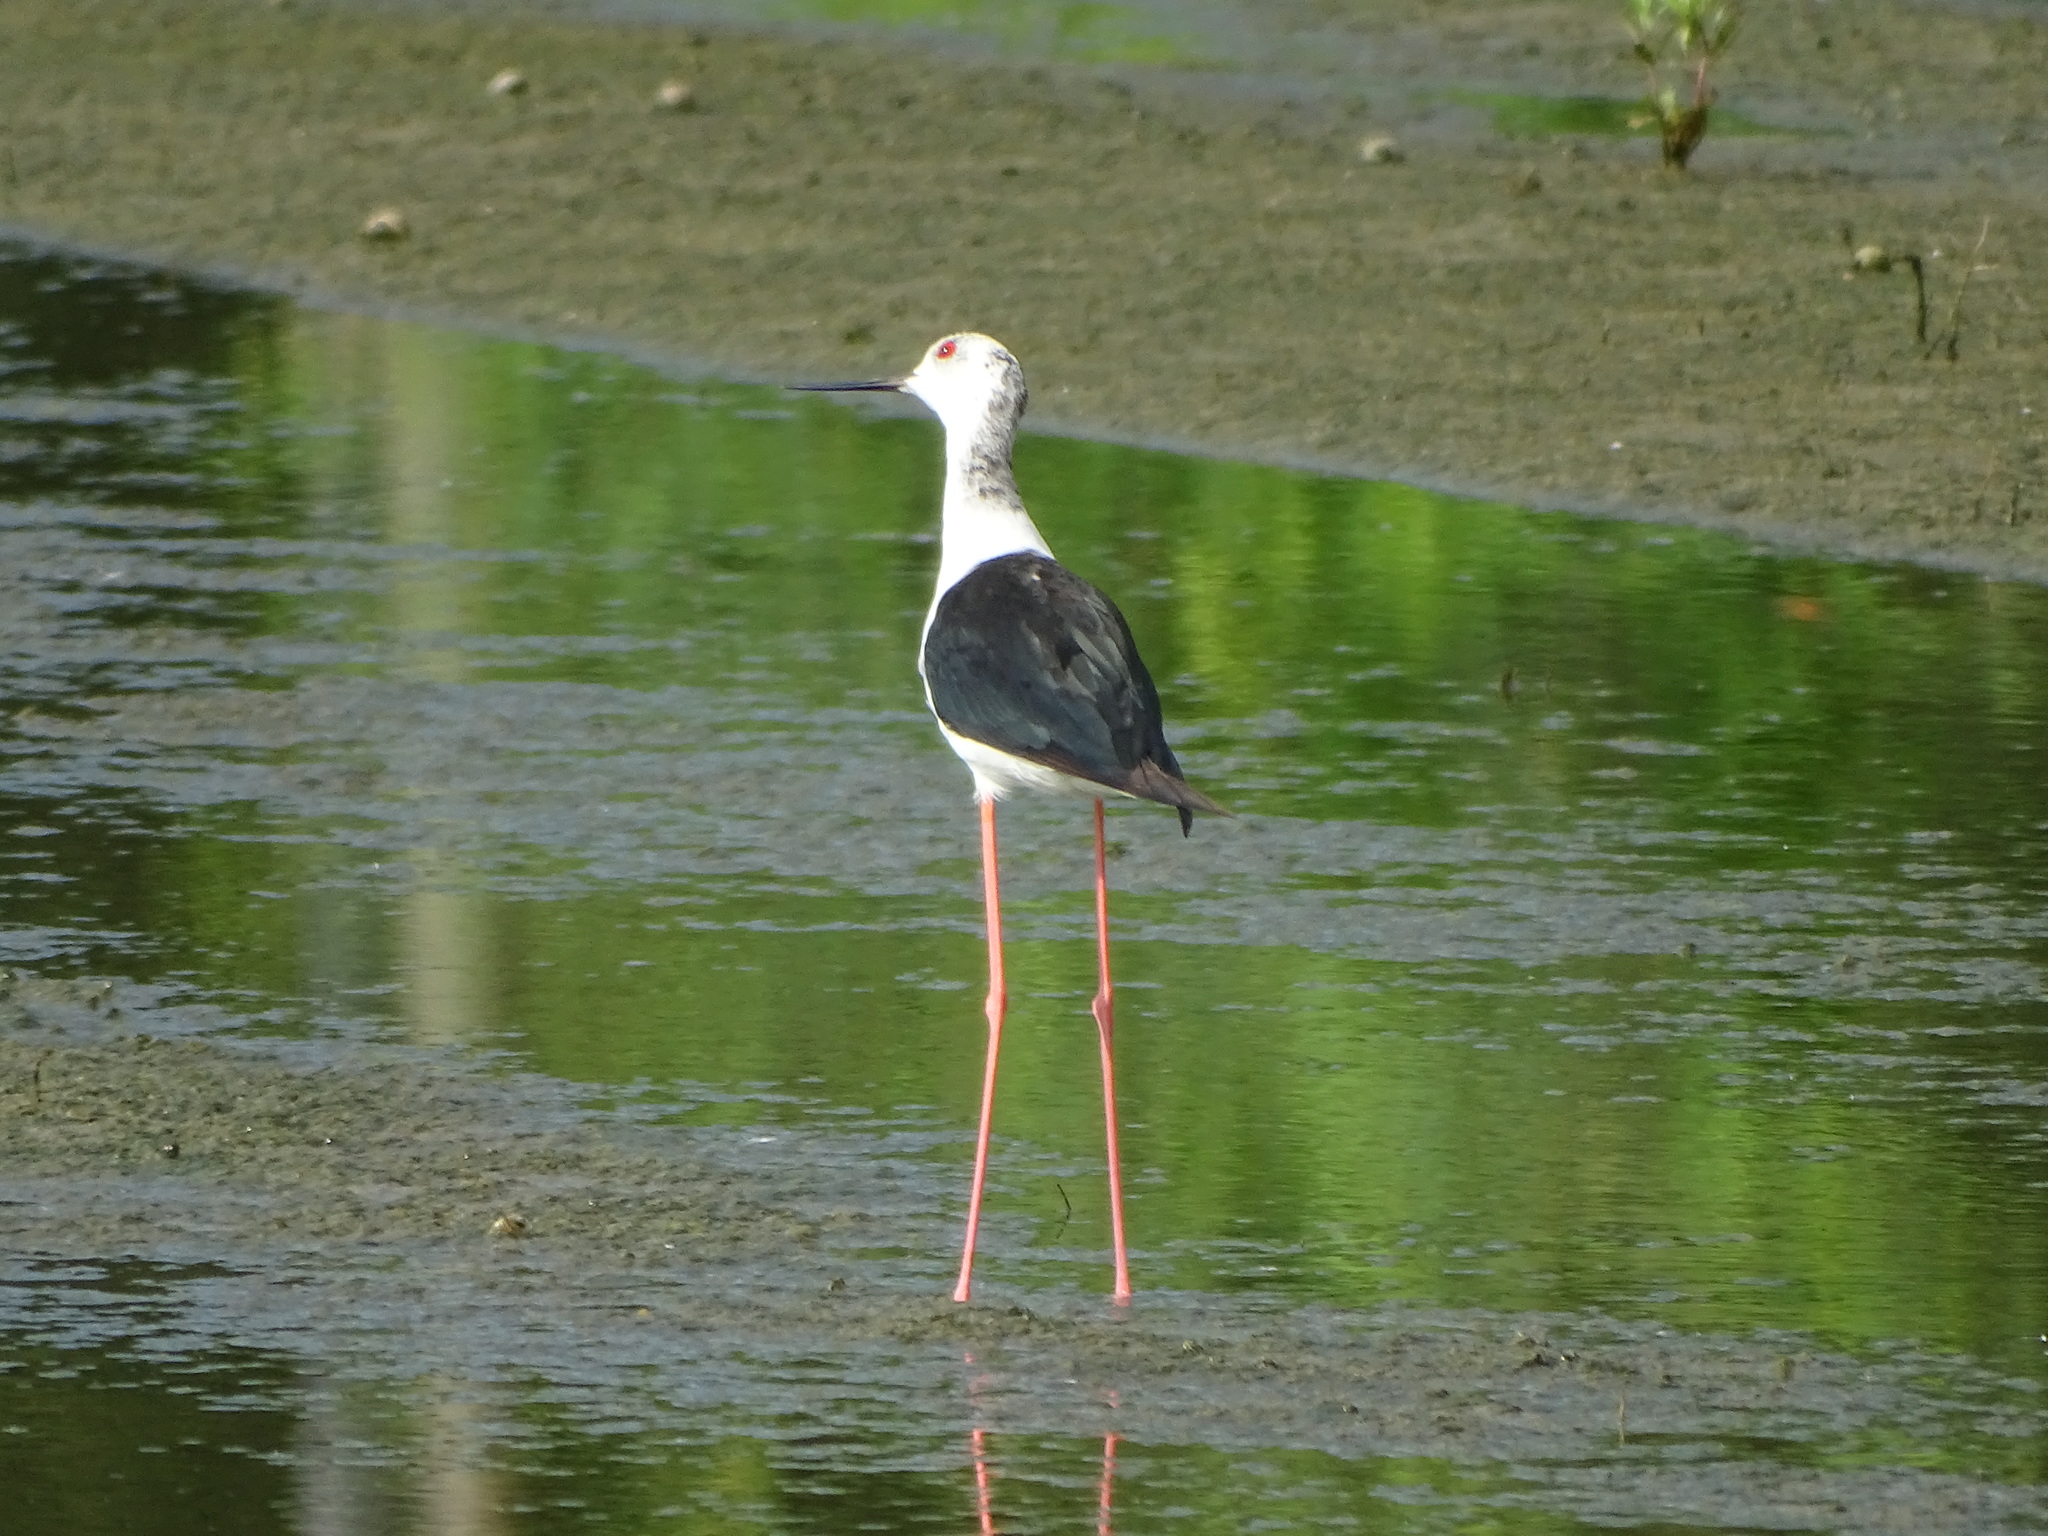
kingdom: Animalia
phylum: Chordata
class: Aves
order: Charadriiformes
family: Recurvirostridae
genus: Himantopus
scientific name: Himantopus himantopus
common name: Black-winged stilt
